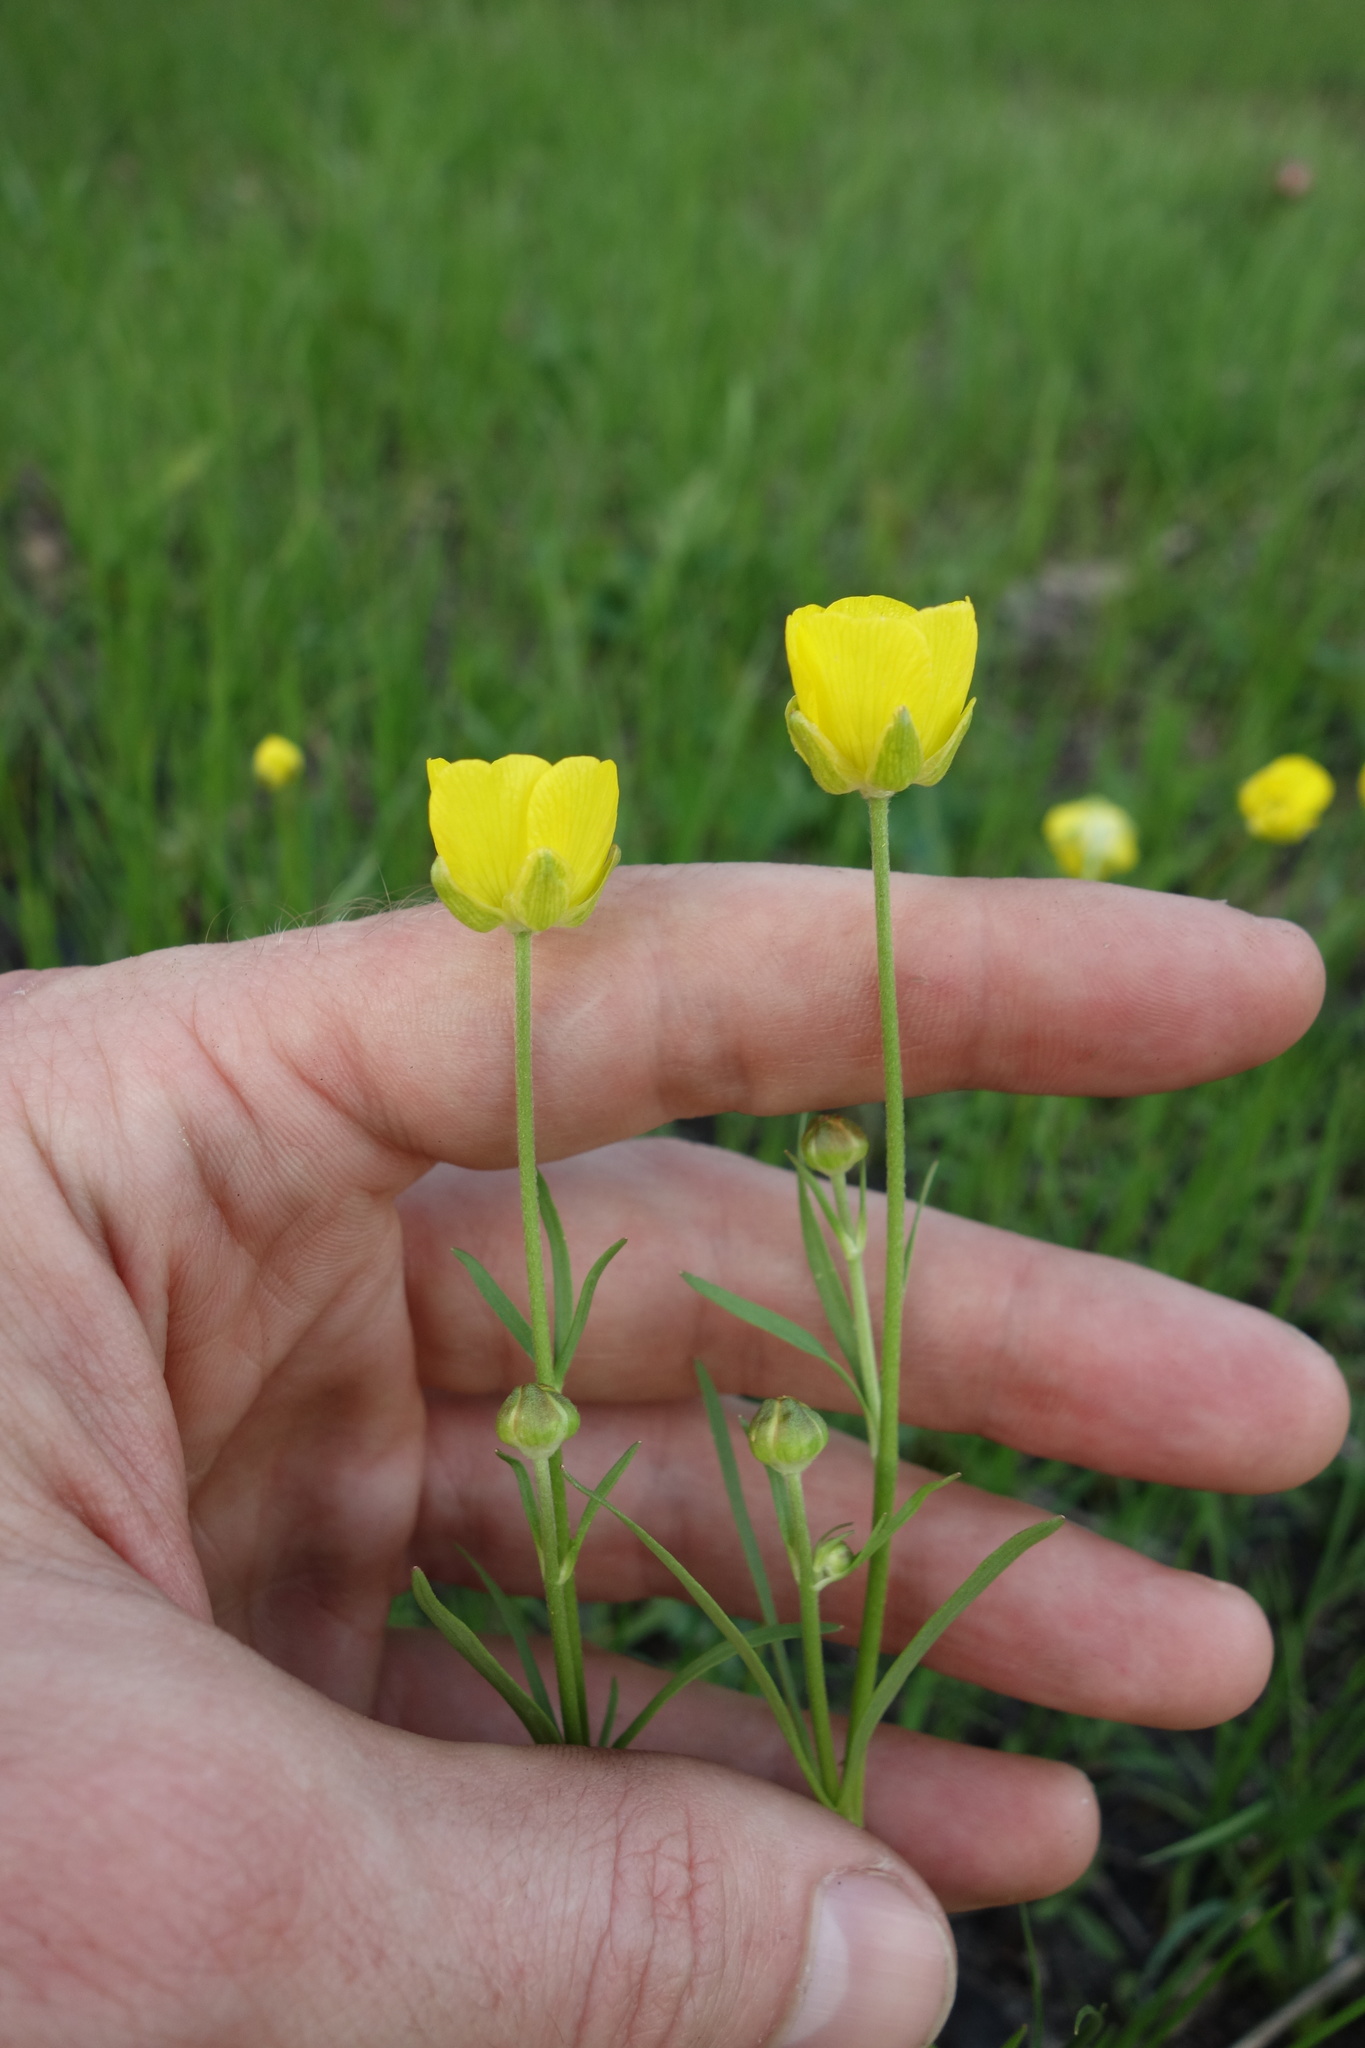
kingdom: Plantae
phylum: Tracheophyta
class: Magnoliopsida
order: Ranunculales
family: Ranunculaceae
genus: Ranunculus
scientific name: Ranunculus pedatus
